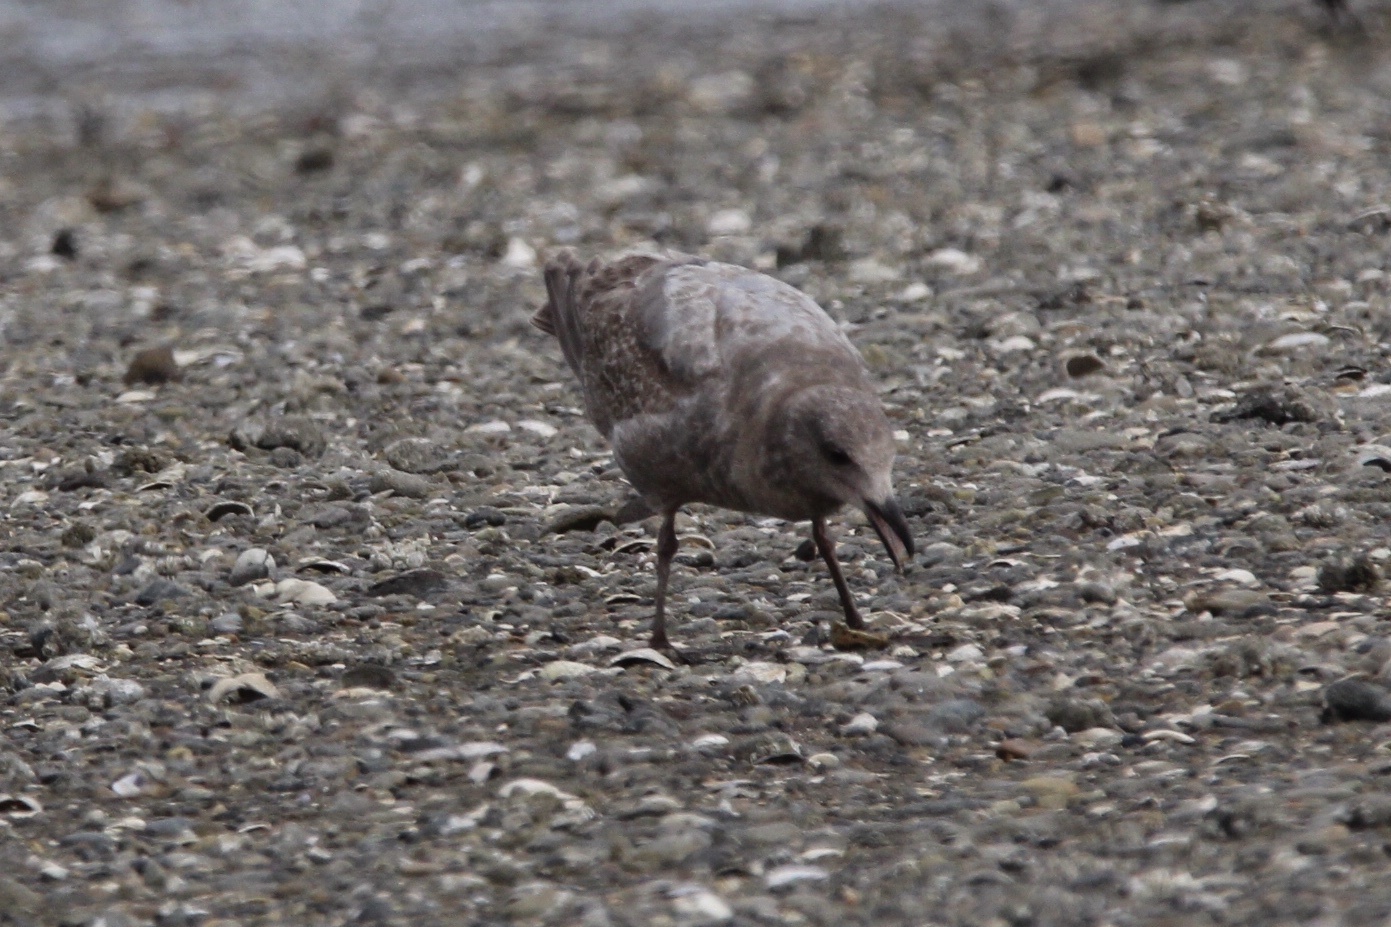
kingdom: Animalia
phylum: Chordata
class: Aves
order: Charadriiformes
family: Laridae
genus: Larus
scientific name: Larus
